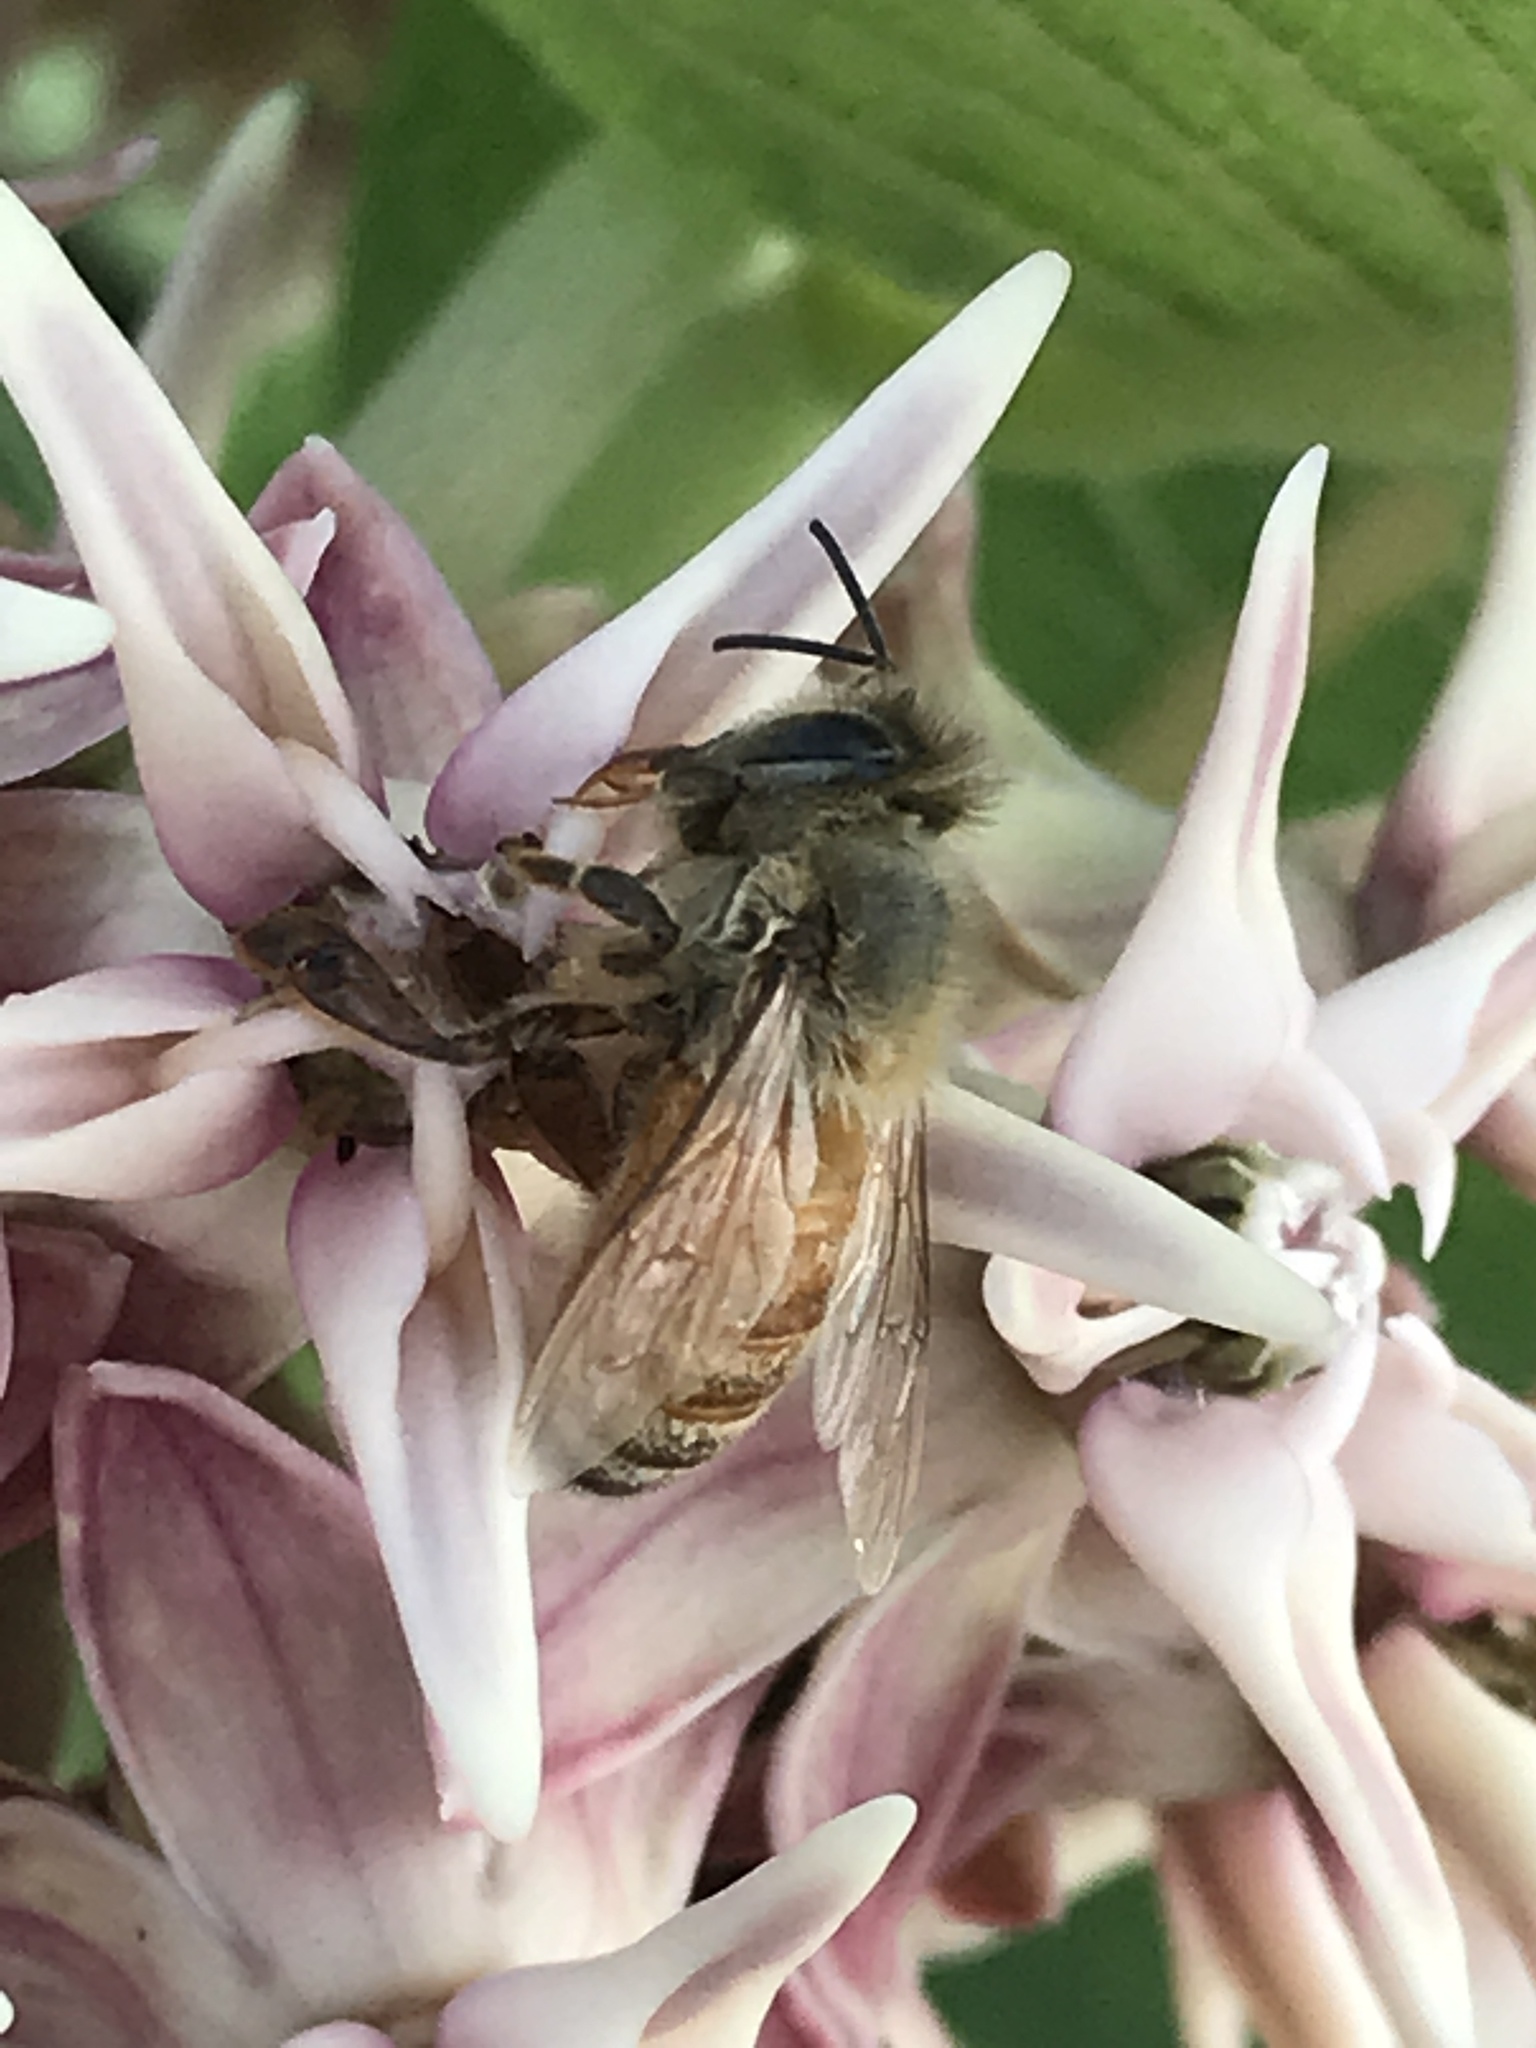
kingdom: Animalia
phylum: Arthropoda
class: Insecta
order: Hymenoptera
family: Apidae
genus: Apis
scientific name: Apis mellifera
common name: Honey bee
